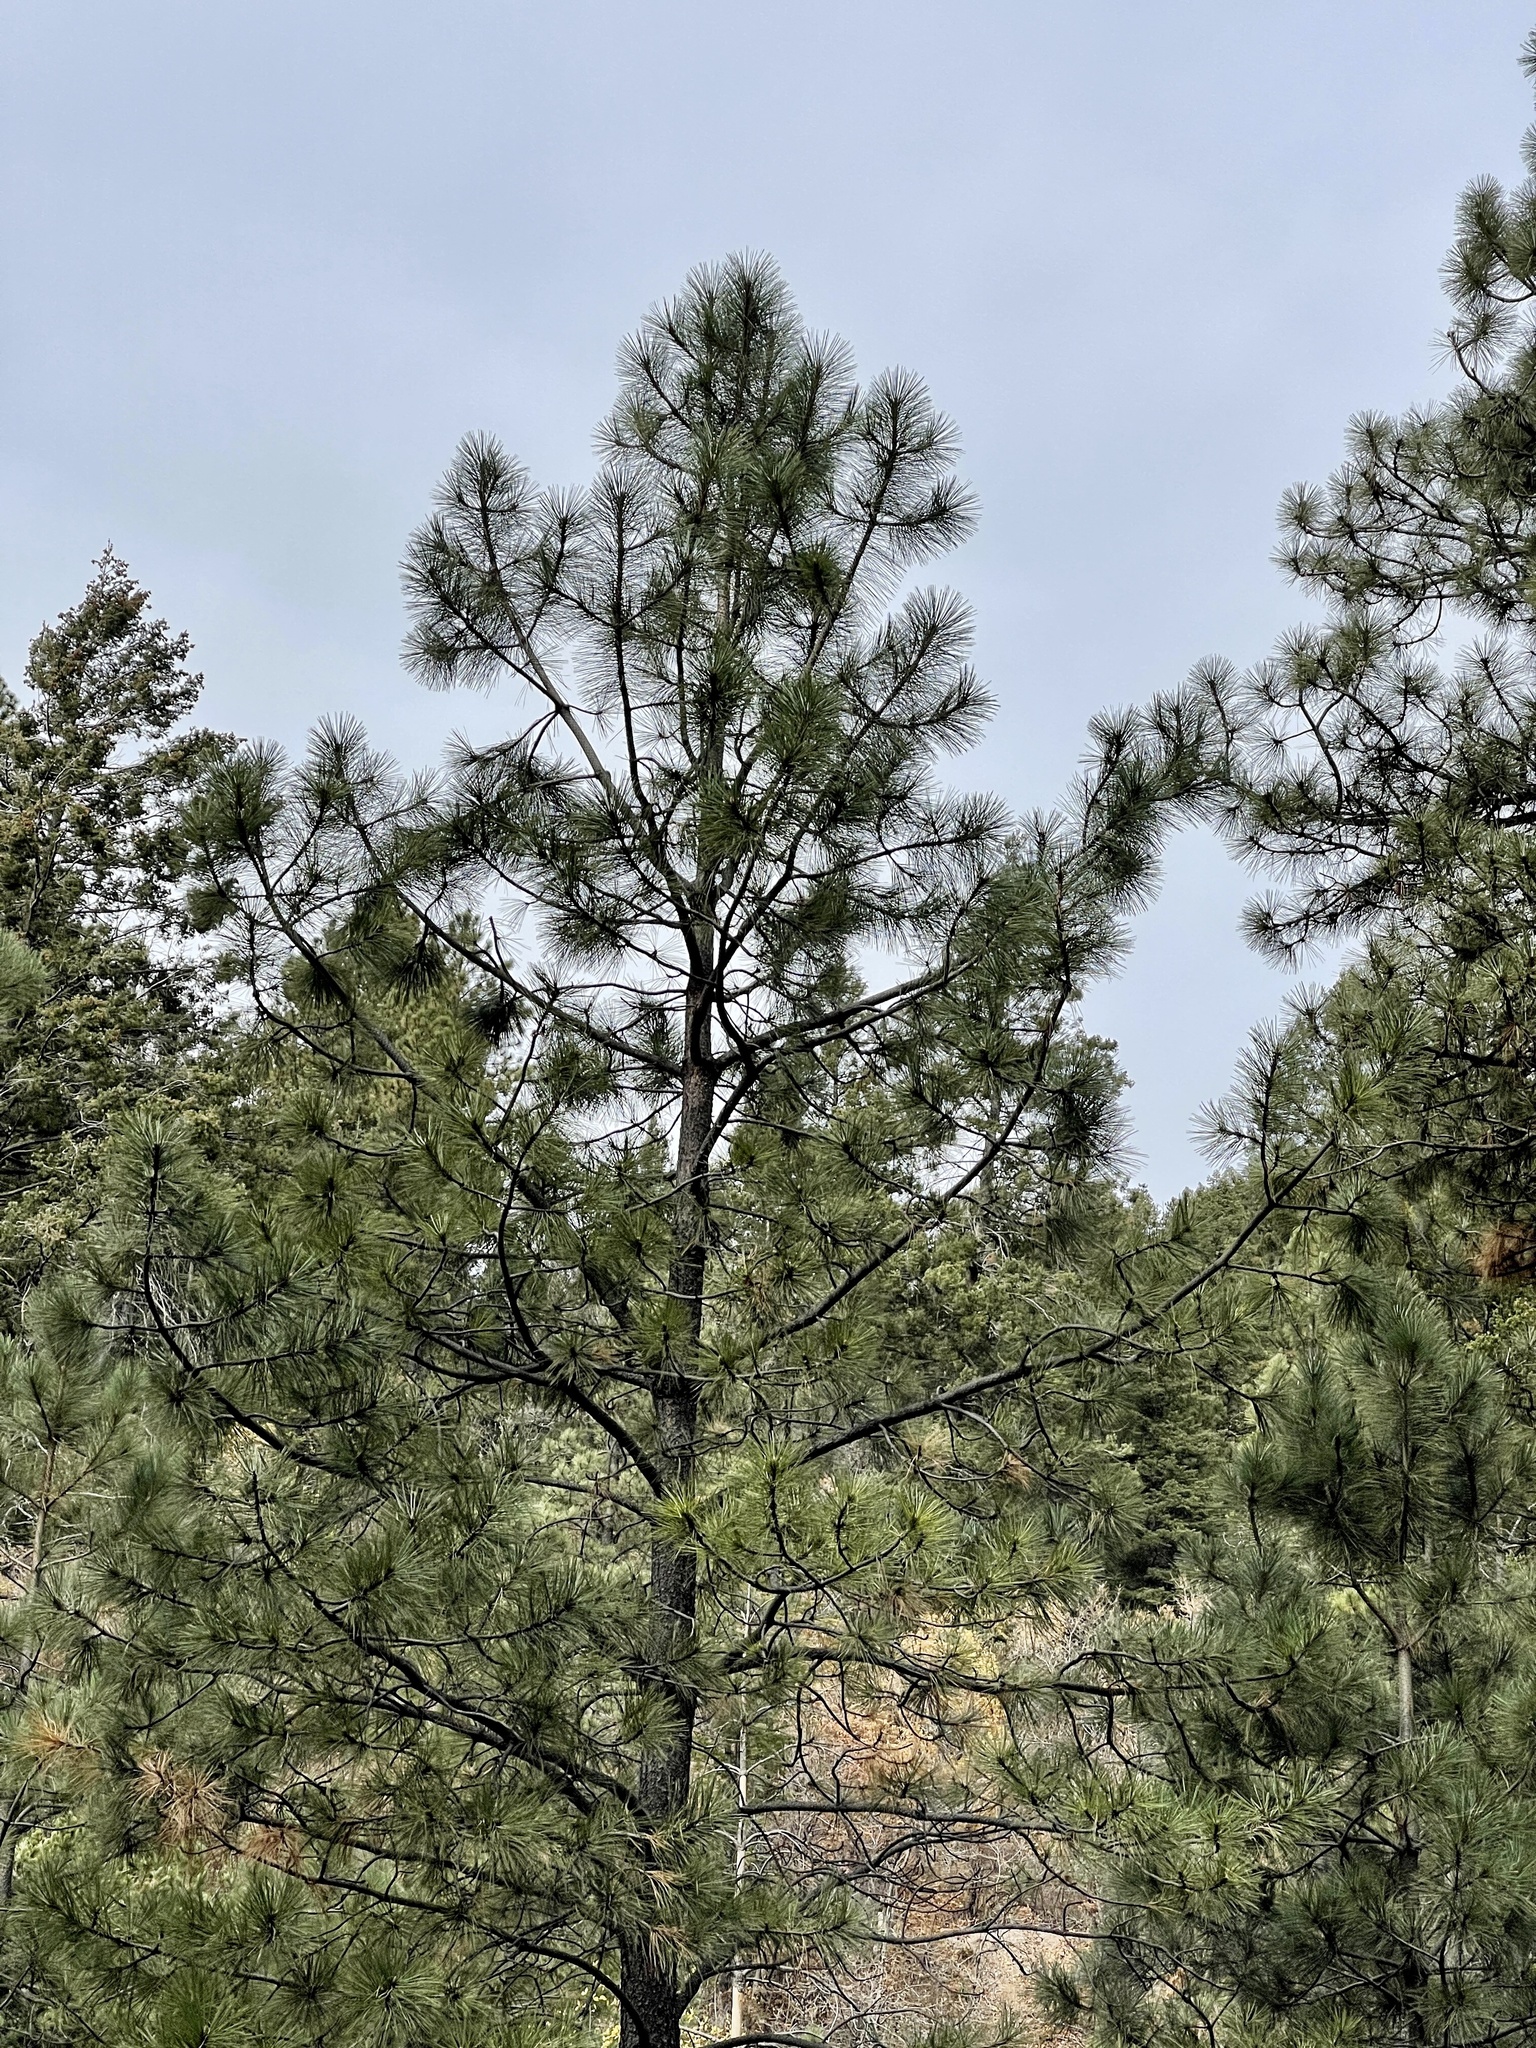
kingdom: Plantae
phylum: Tracheophyta
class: Pinopsida
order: Pinales
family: Pinaceae
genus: Pinus
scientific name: Pinus ponderosa
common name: Western yellow-pine
